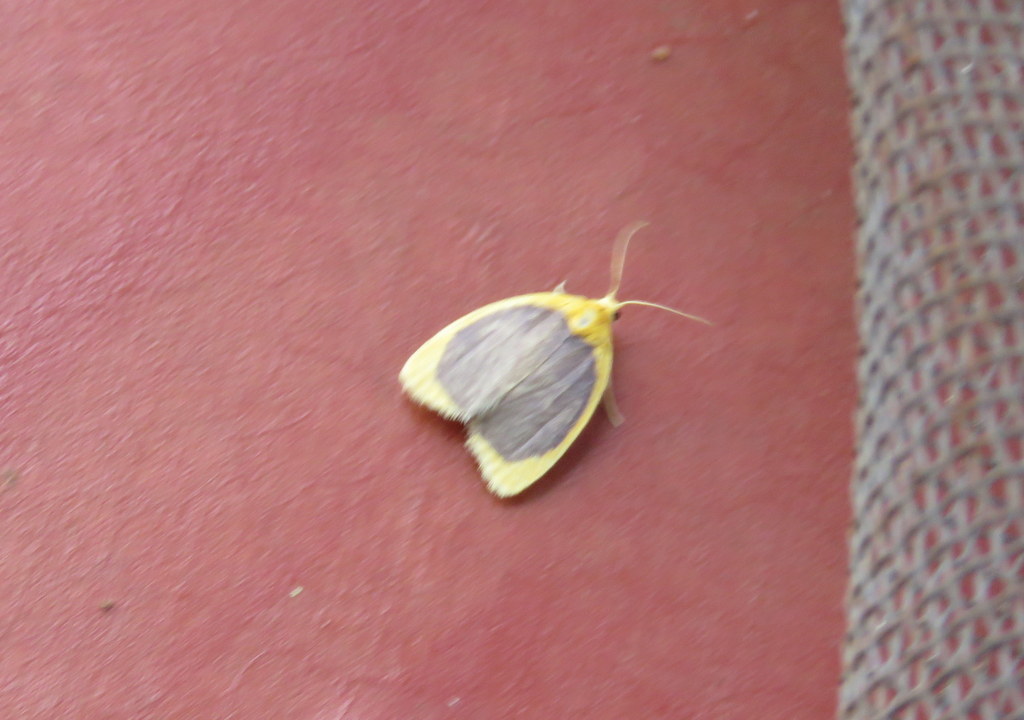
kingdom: Animalia
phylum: Arthropoda
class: Insecta
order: Lepidoptera
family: Erebidae
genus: Pronola
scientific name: Pronola magniplaga
